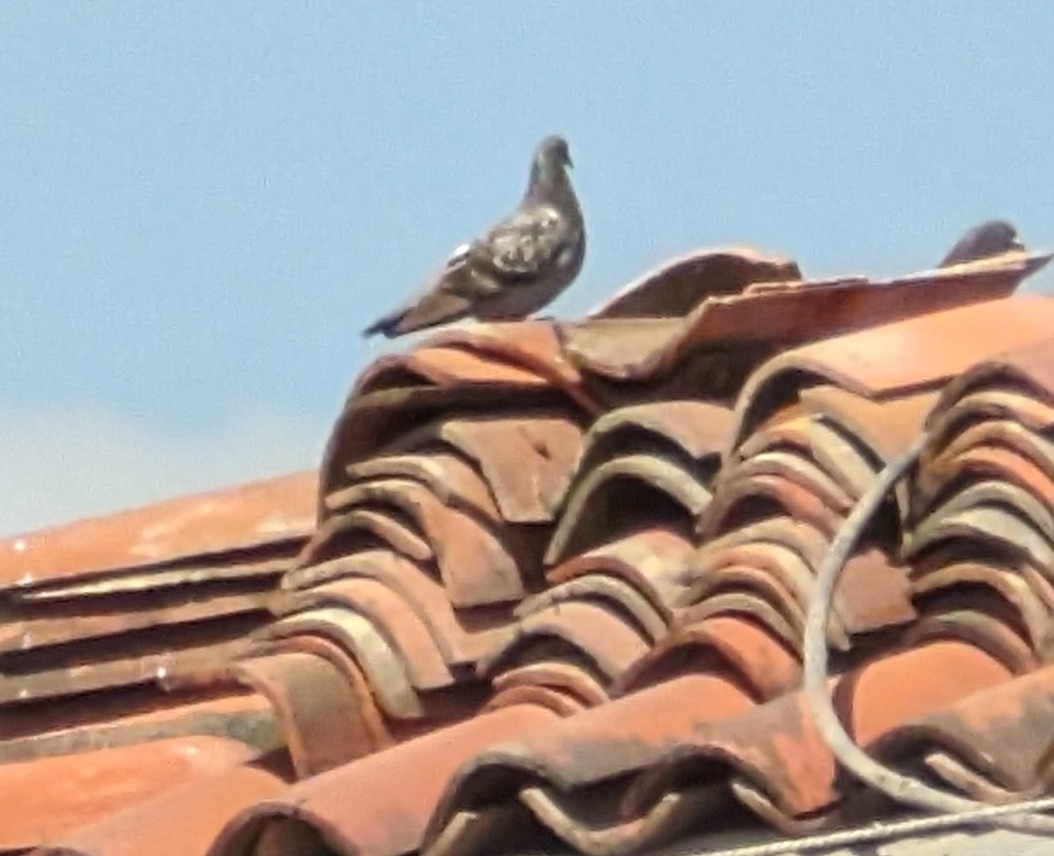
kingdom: Animalia
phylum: Chordata
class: Aves
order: Columbiformes
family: Columbidae
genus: Columba
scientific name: Columba livia
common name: Rock pigeon
